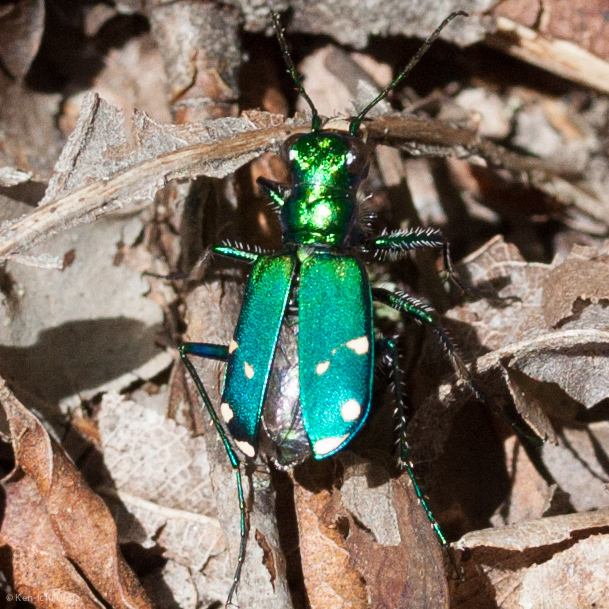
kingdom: Animalia
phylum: Arthropoda
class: Insecta
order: Coleoptera
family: Carabidae
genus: Cicindela
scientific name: Cicindela sexguttata
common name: Six-spotted tiger beetle
